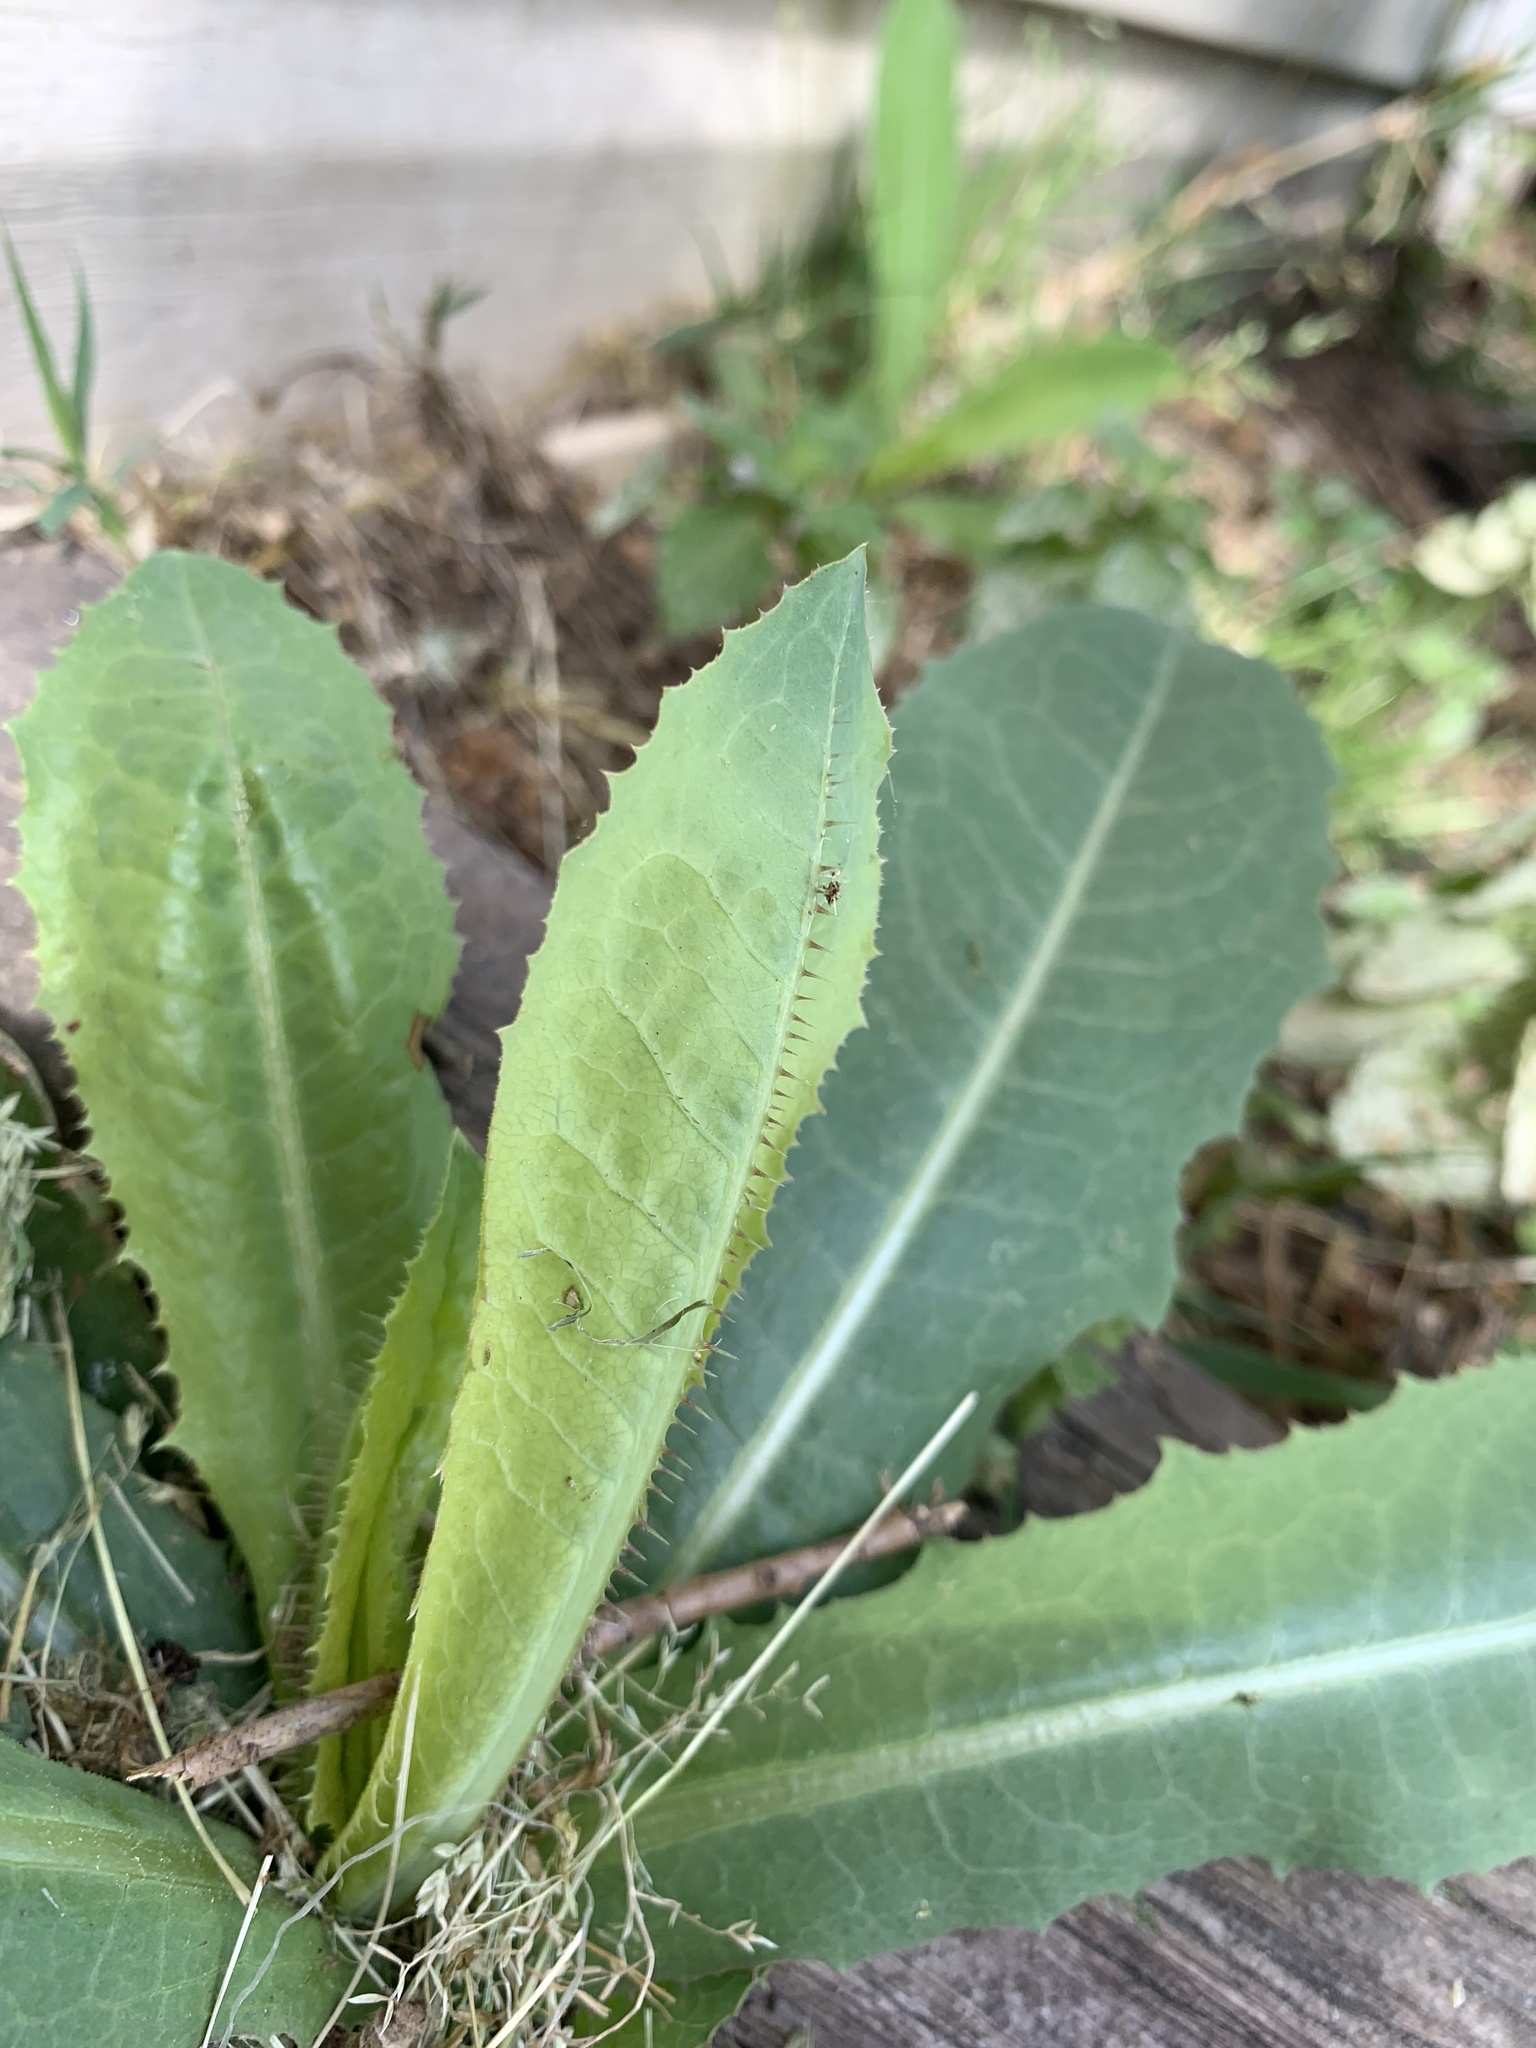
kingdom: Plantae
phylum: Tracheophyta
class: Magnoliopsida
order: Asterales
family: Asteraceae
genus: Lactuca
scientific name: Lactuca serriola
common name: Prickly lettuce
